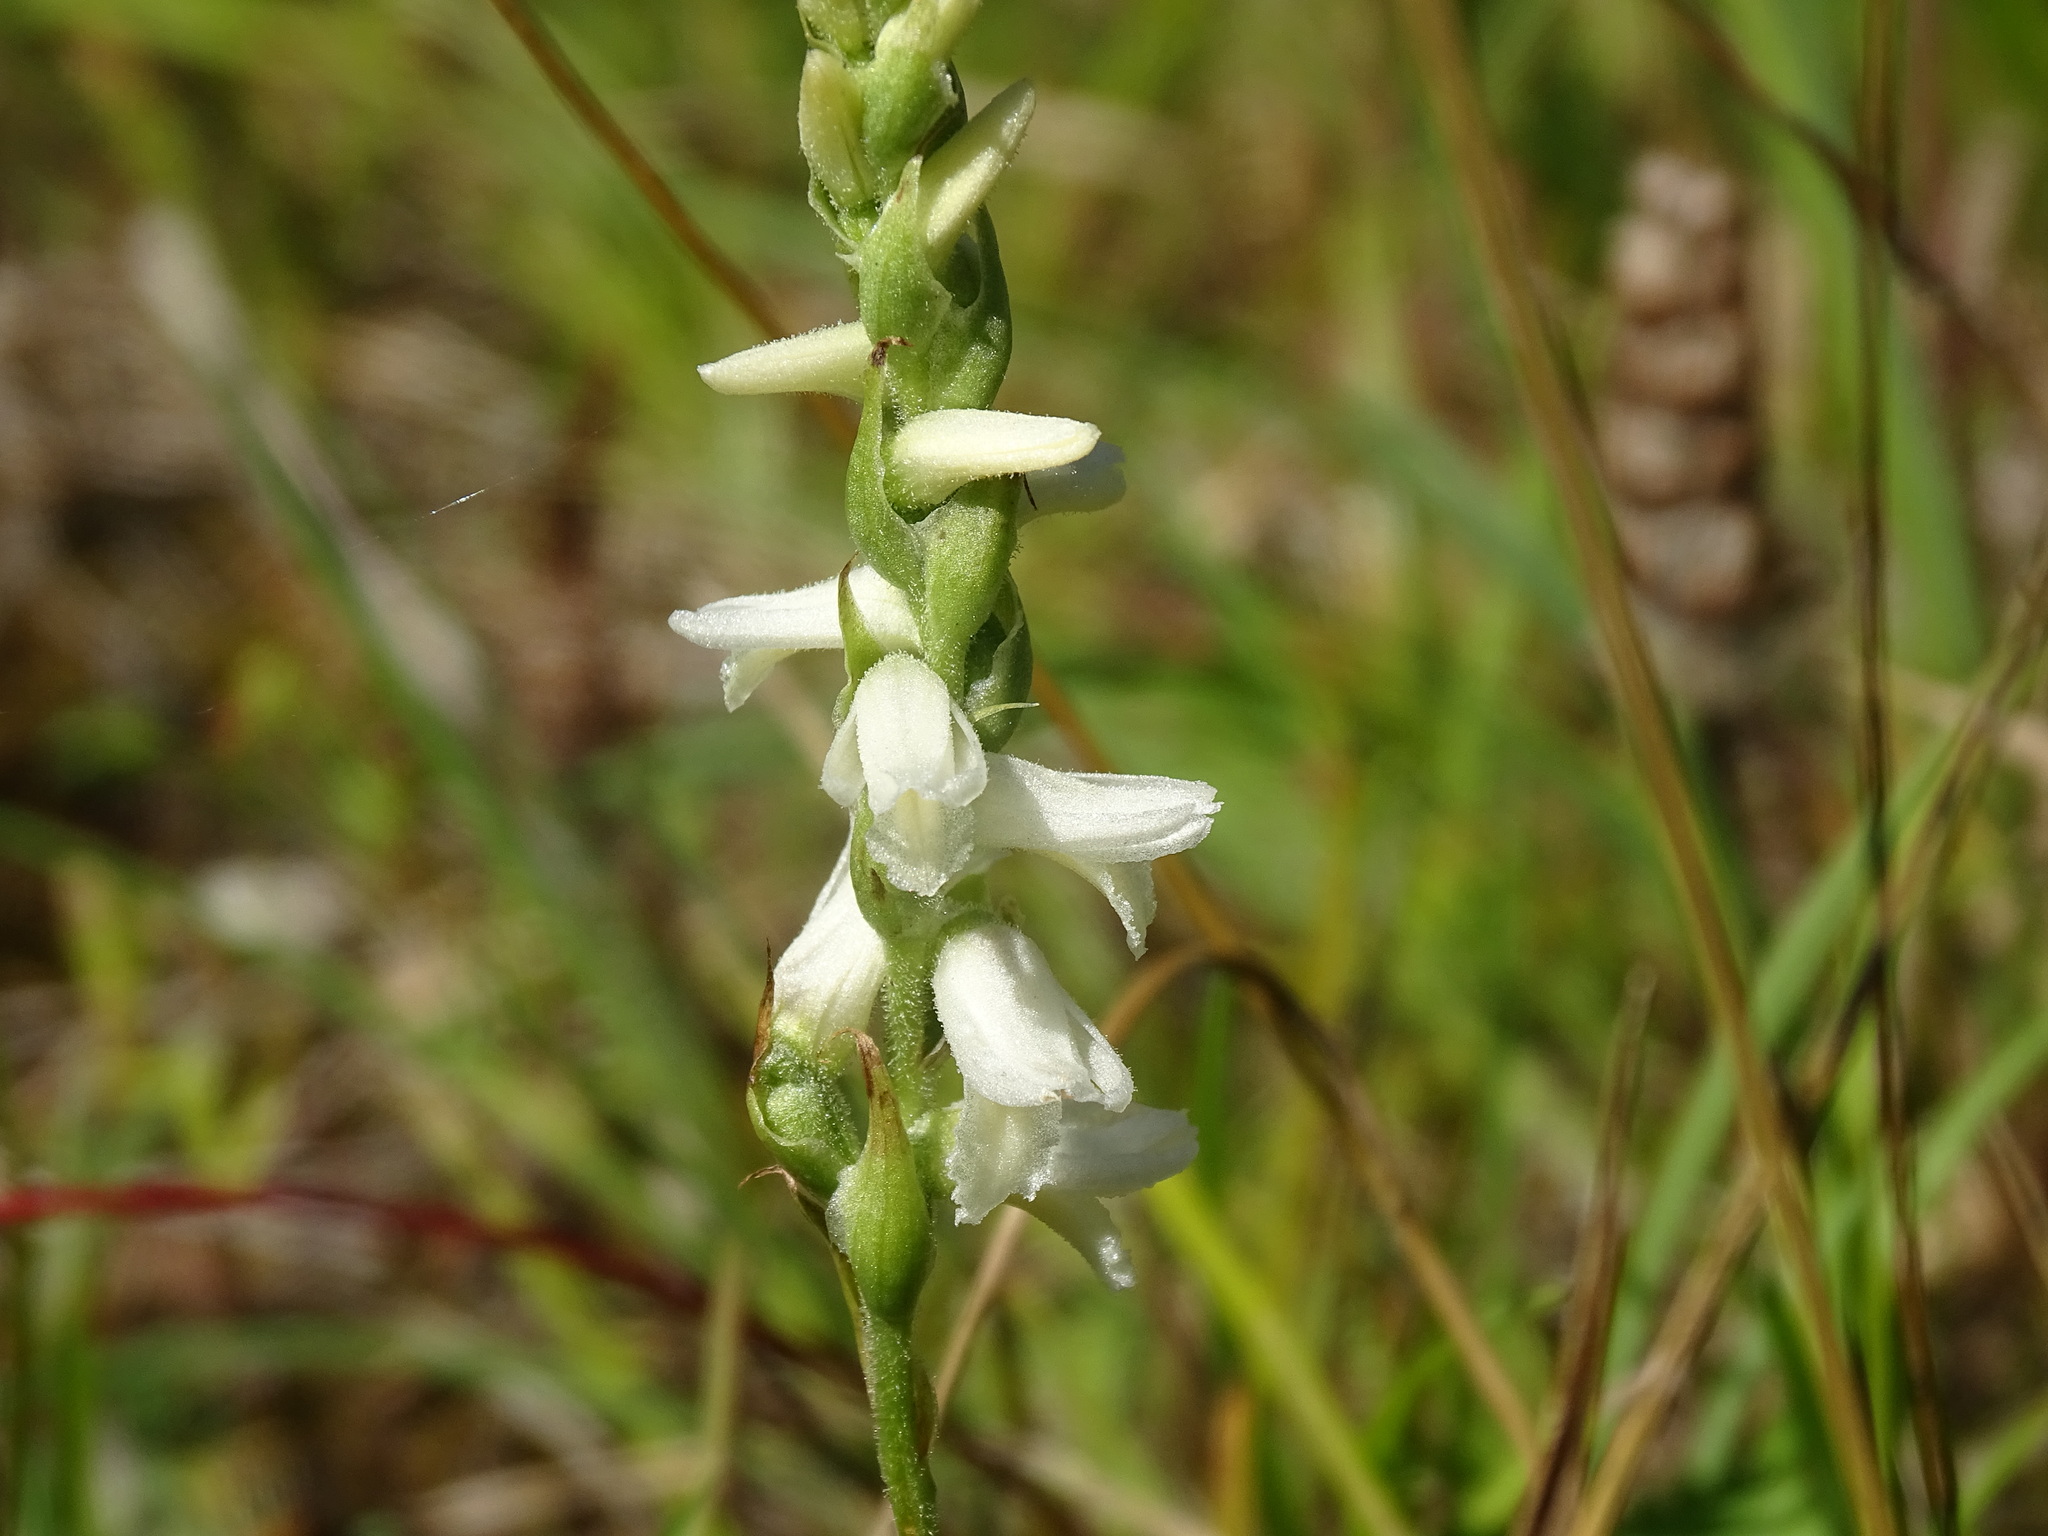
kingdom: Plantae
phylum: Tracheophyta
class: Liliopsida
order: Asparagales
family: Orchidaceae
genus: Spiranthes
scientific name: Spiranthes magnicamporum
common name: Great plains ladies'-tresses
